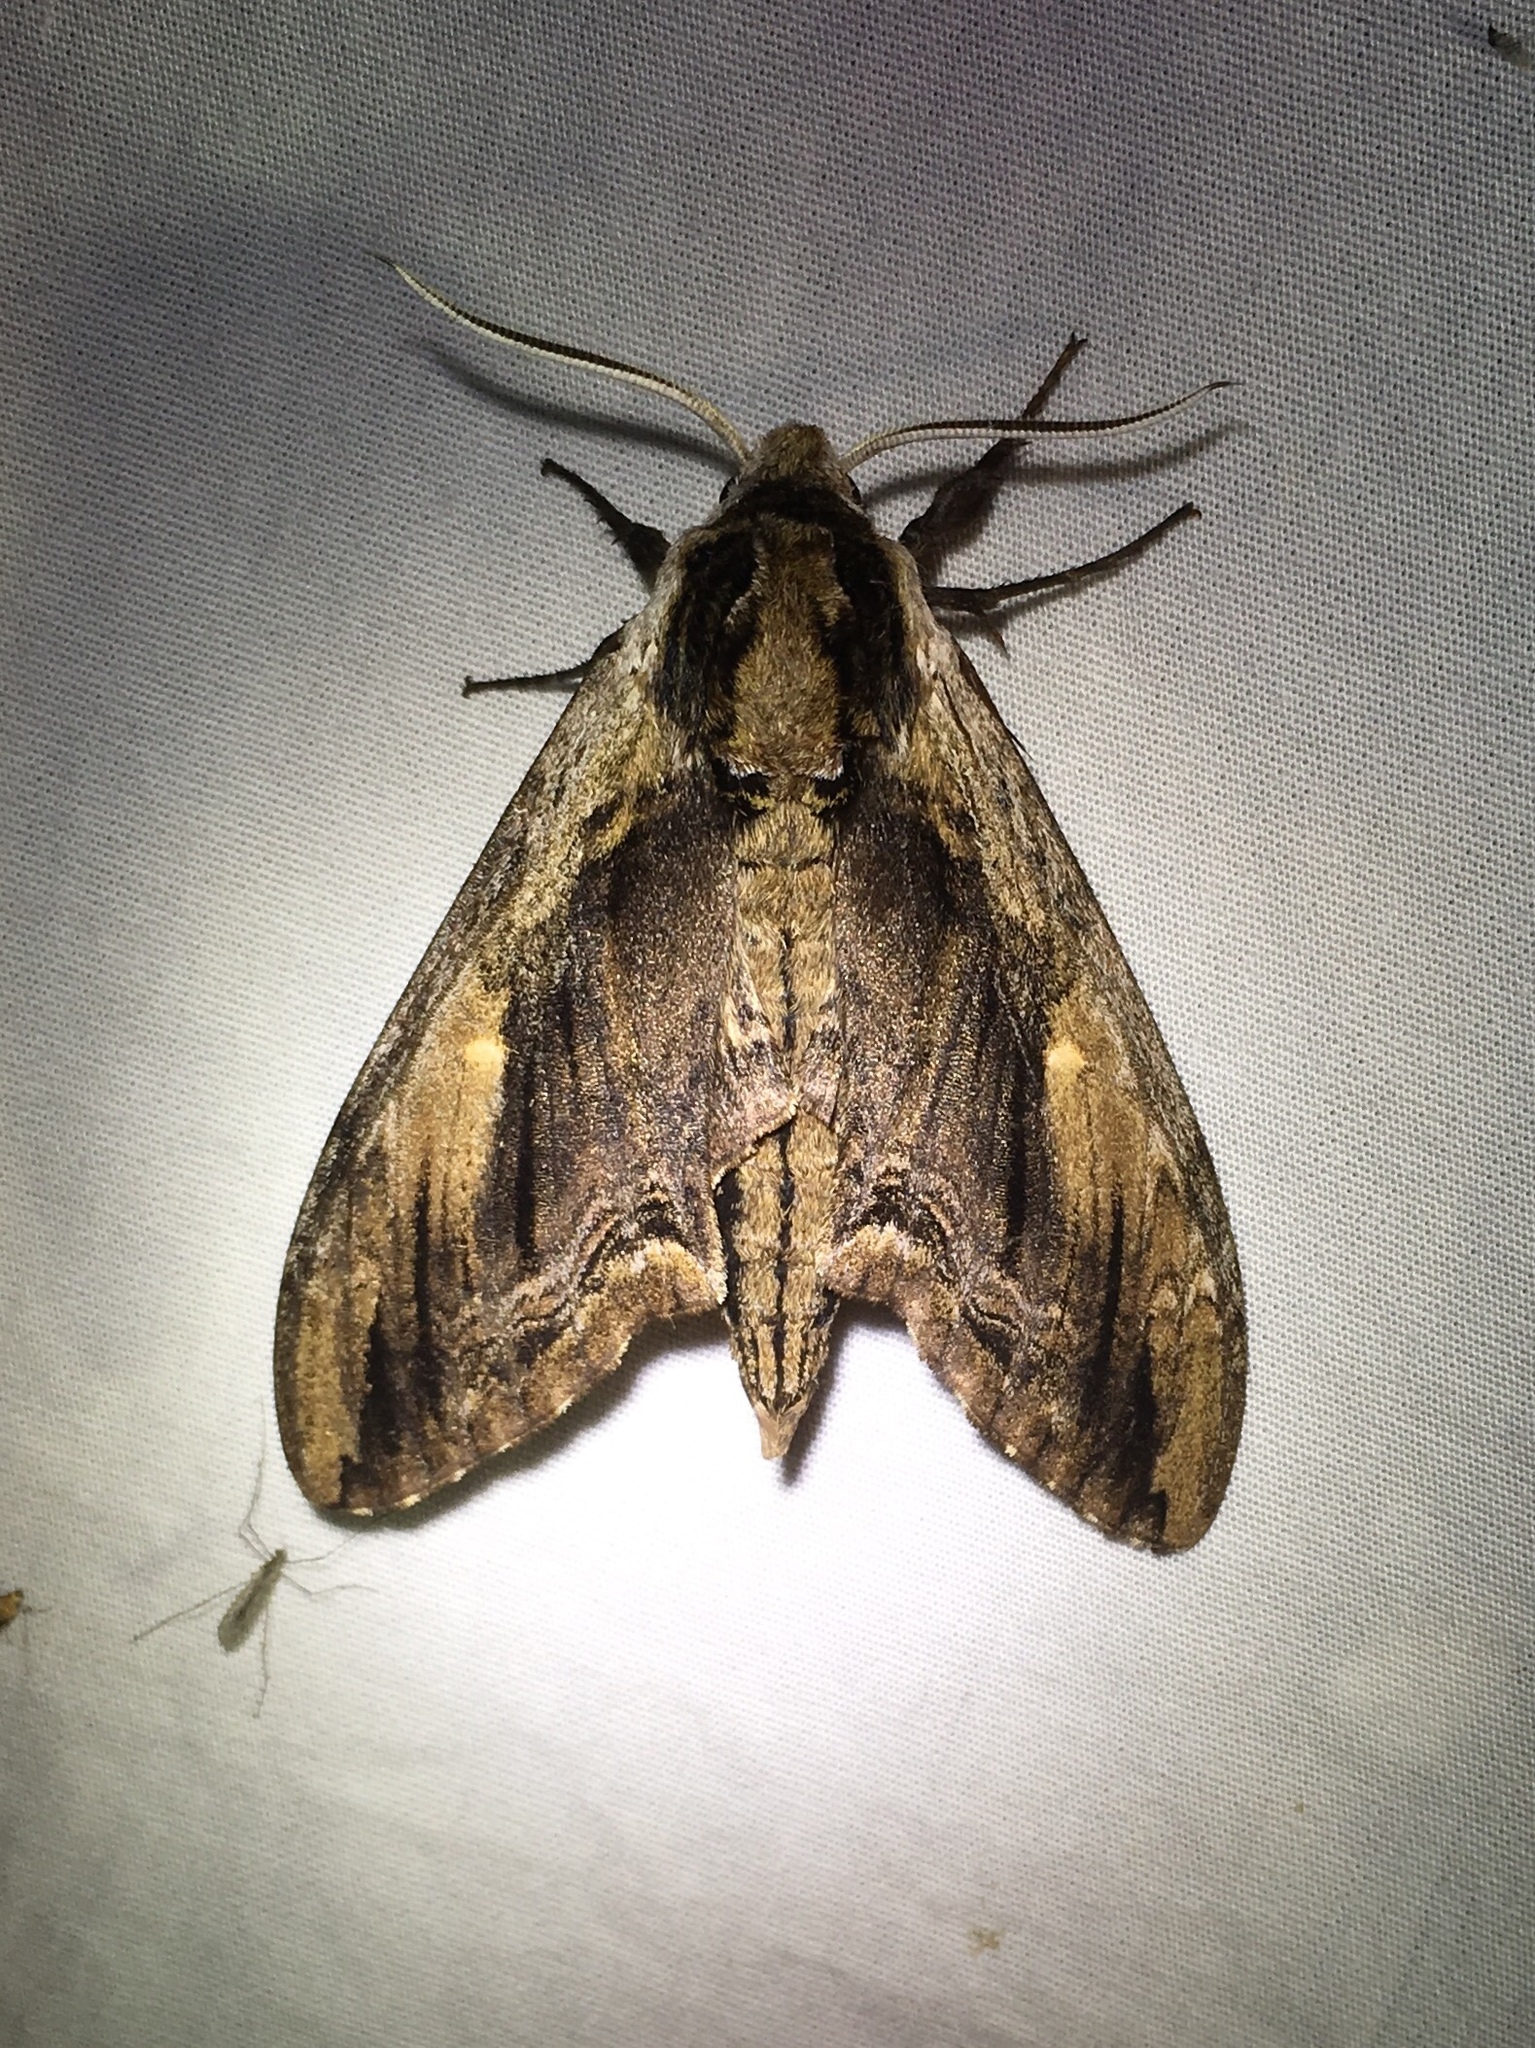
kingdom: Animalia
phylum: Arthropoda
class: Insecta
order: Lepidoptera
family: Sphingidae
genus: Ceratomia
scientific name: Ceratomia amyntor
